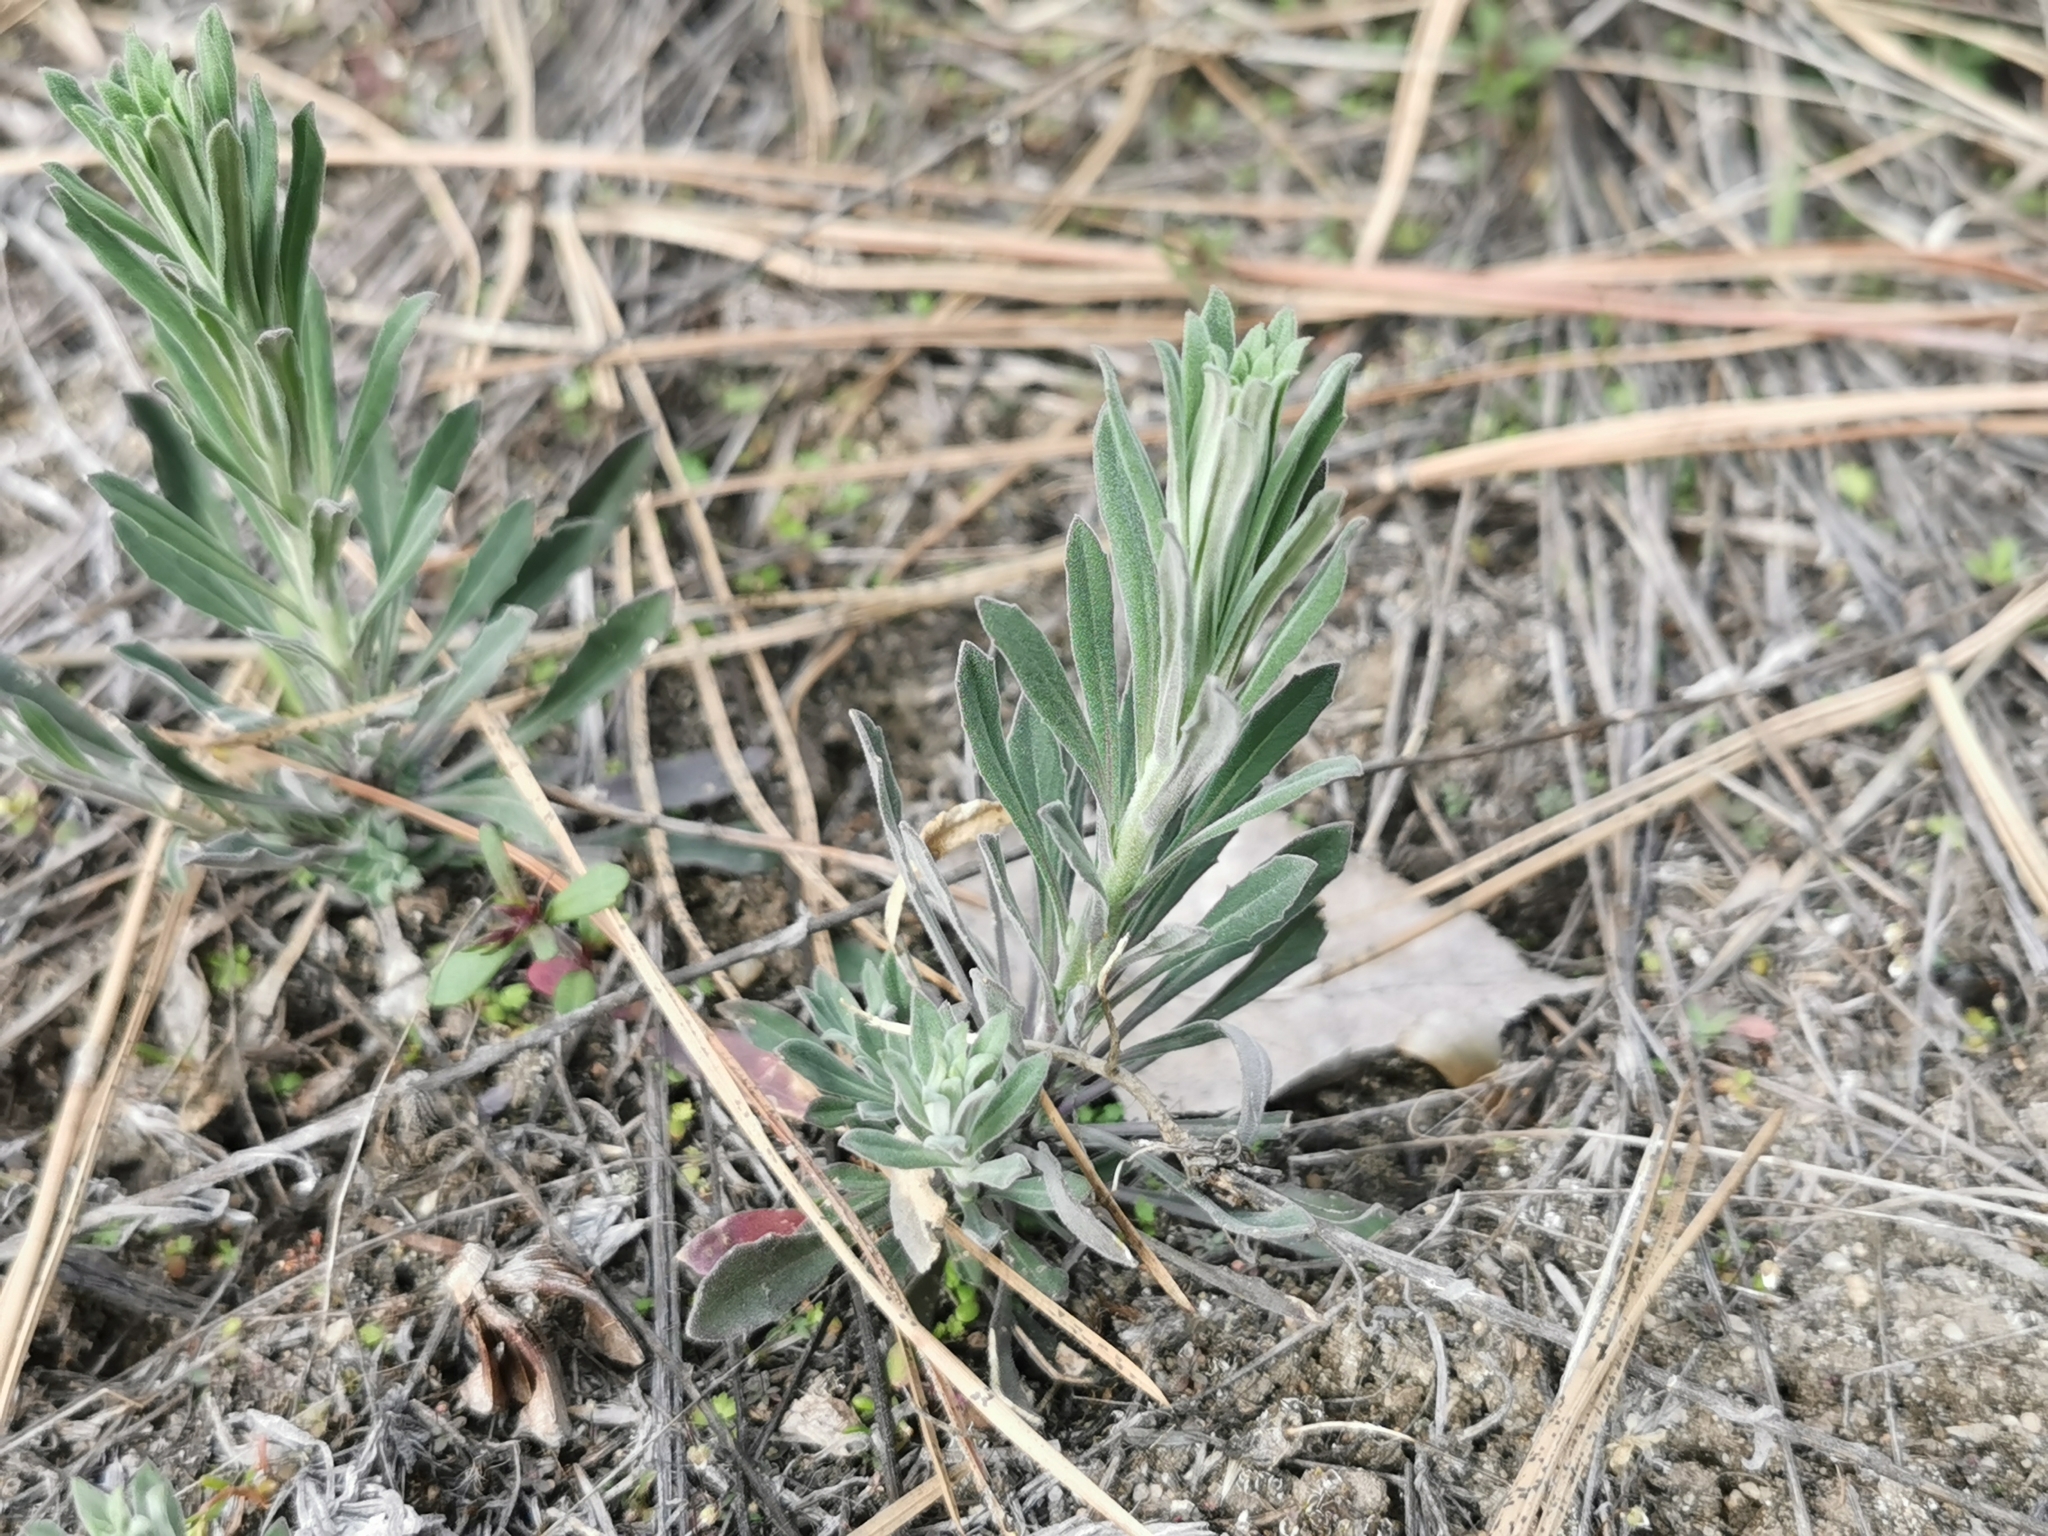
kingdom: Plantae
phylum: Tracheophyta
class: Magnoliopsida
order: Brassicales
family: Brassicaceae
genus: Boechera
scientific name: Boechera retrofracta
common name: Dangling suncress
